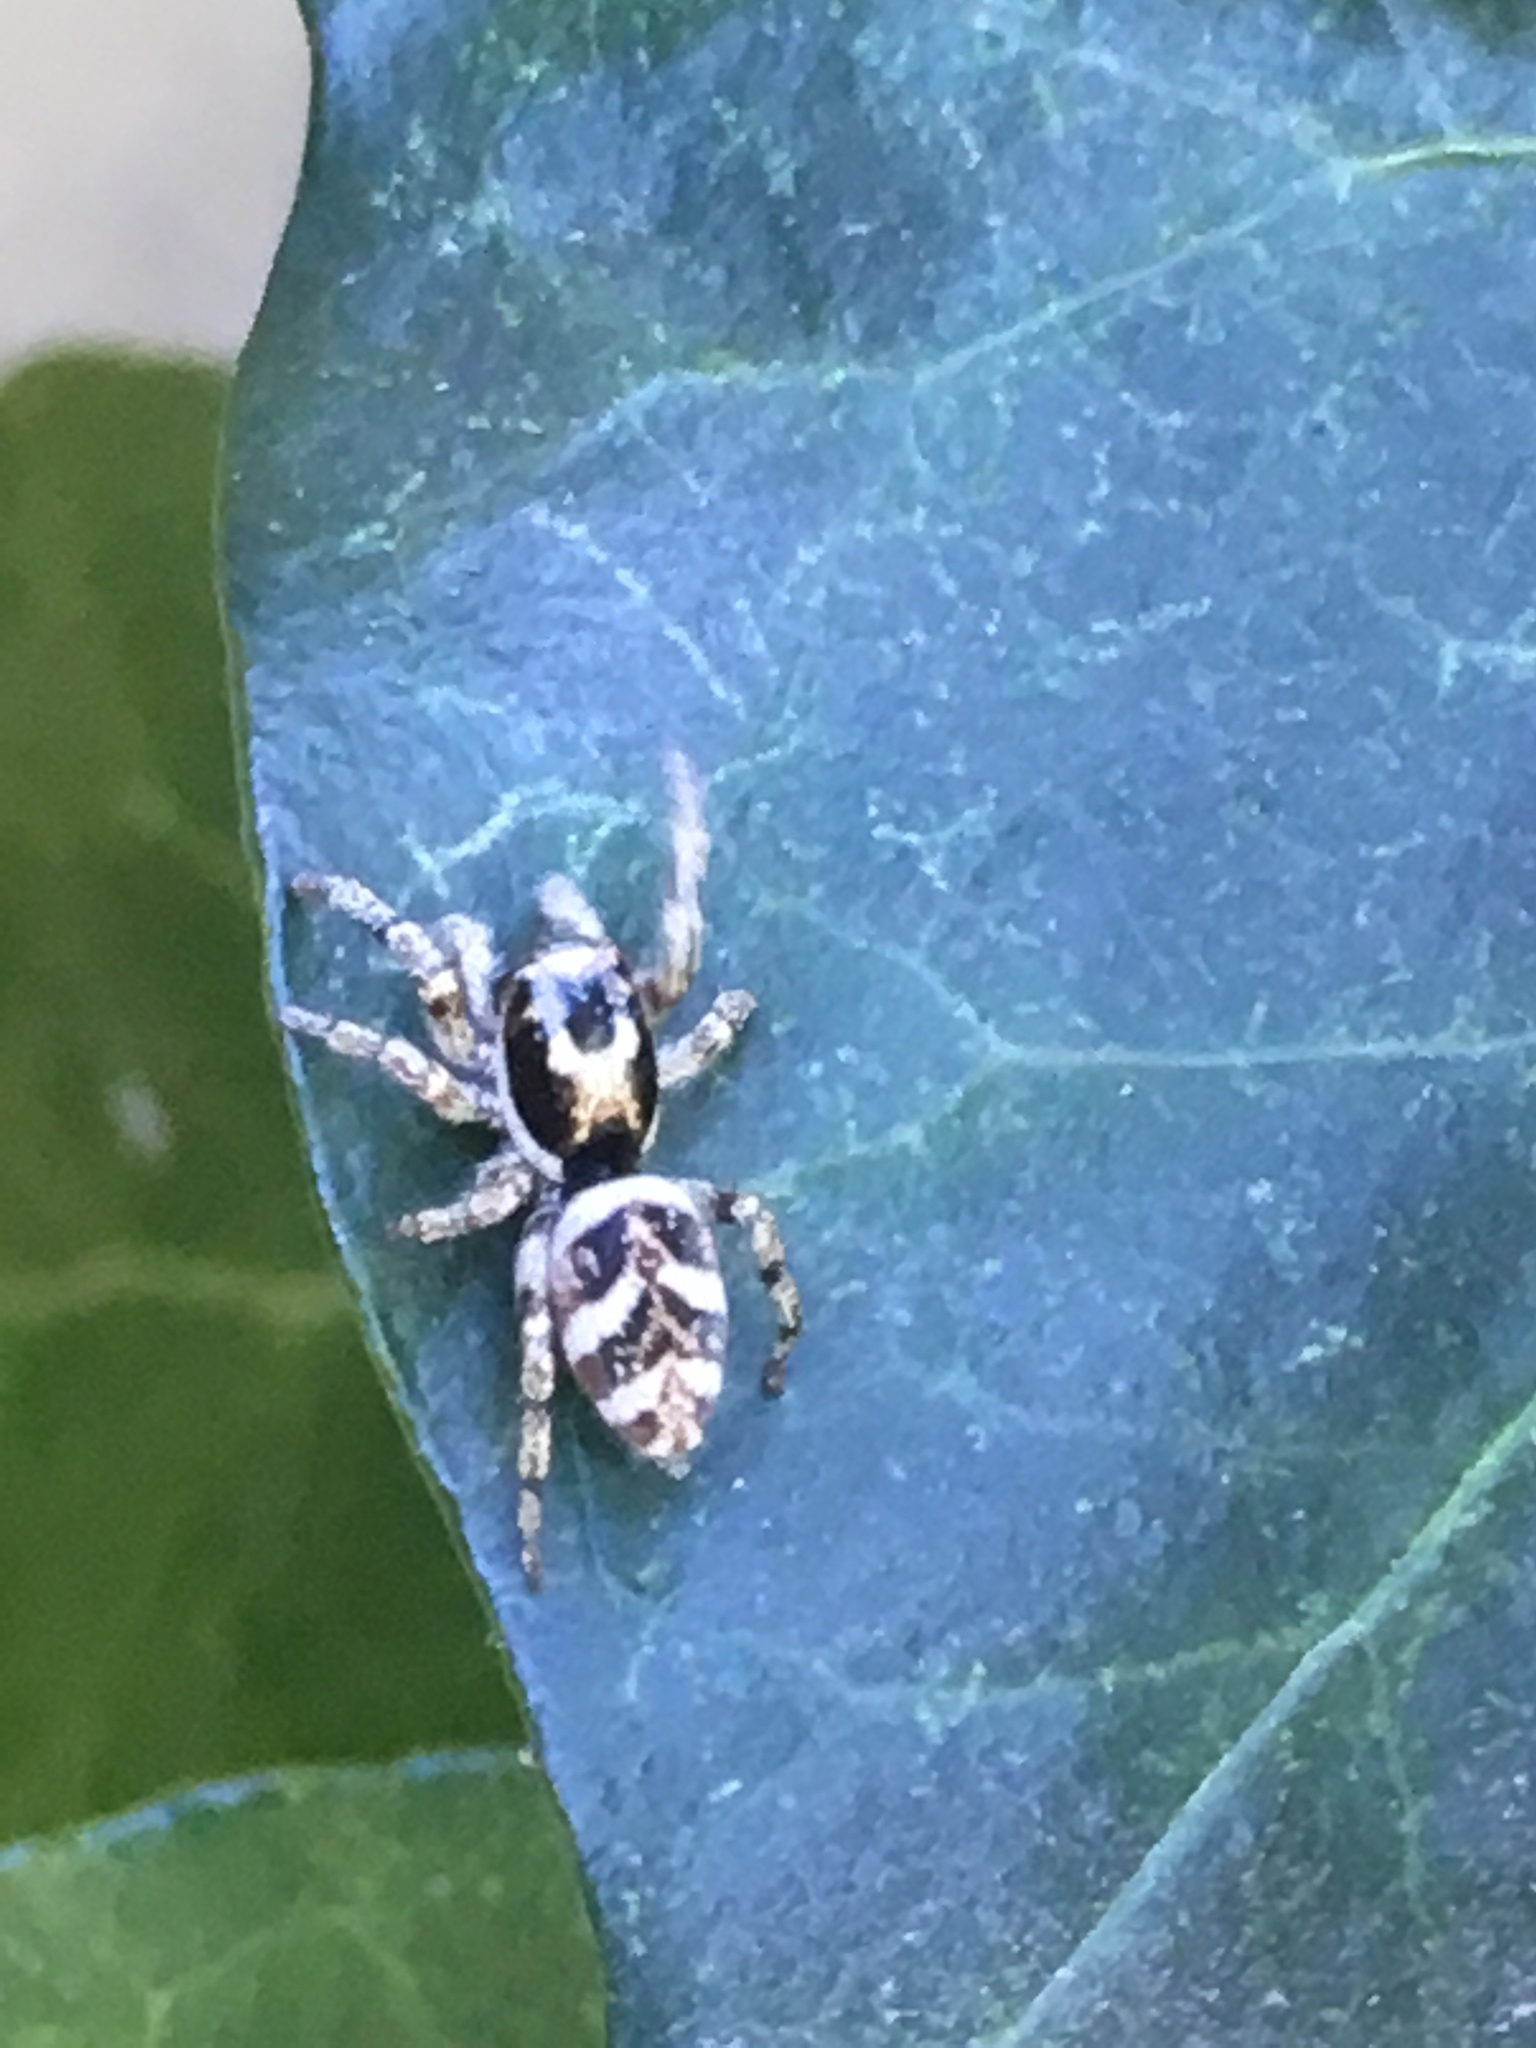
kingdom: Animalia
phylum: Arthropoda
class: Arachnida
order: Araneae
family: Salticidae
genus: Salticus
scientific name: Salticus scenicus
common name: Zebra jumper
